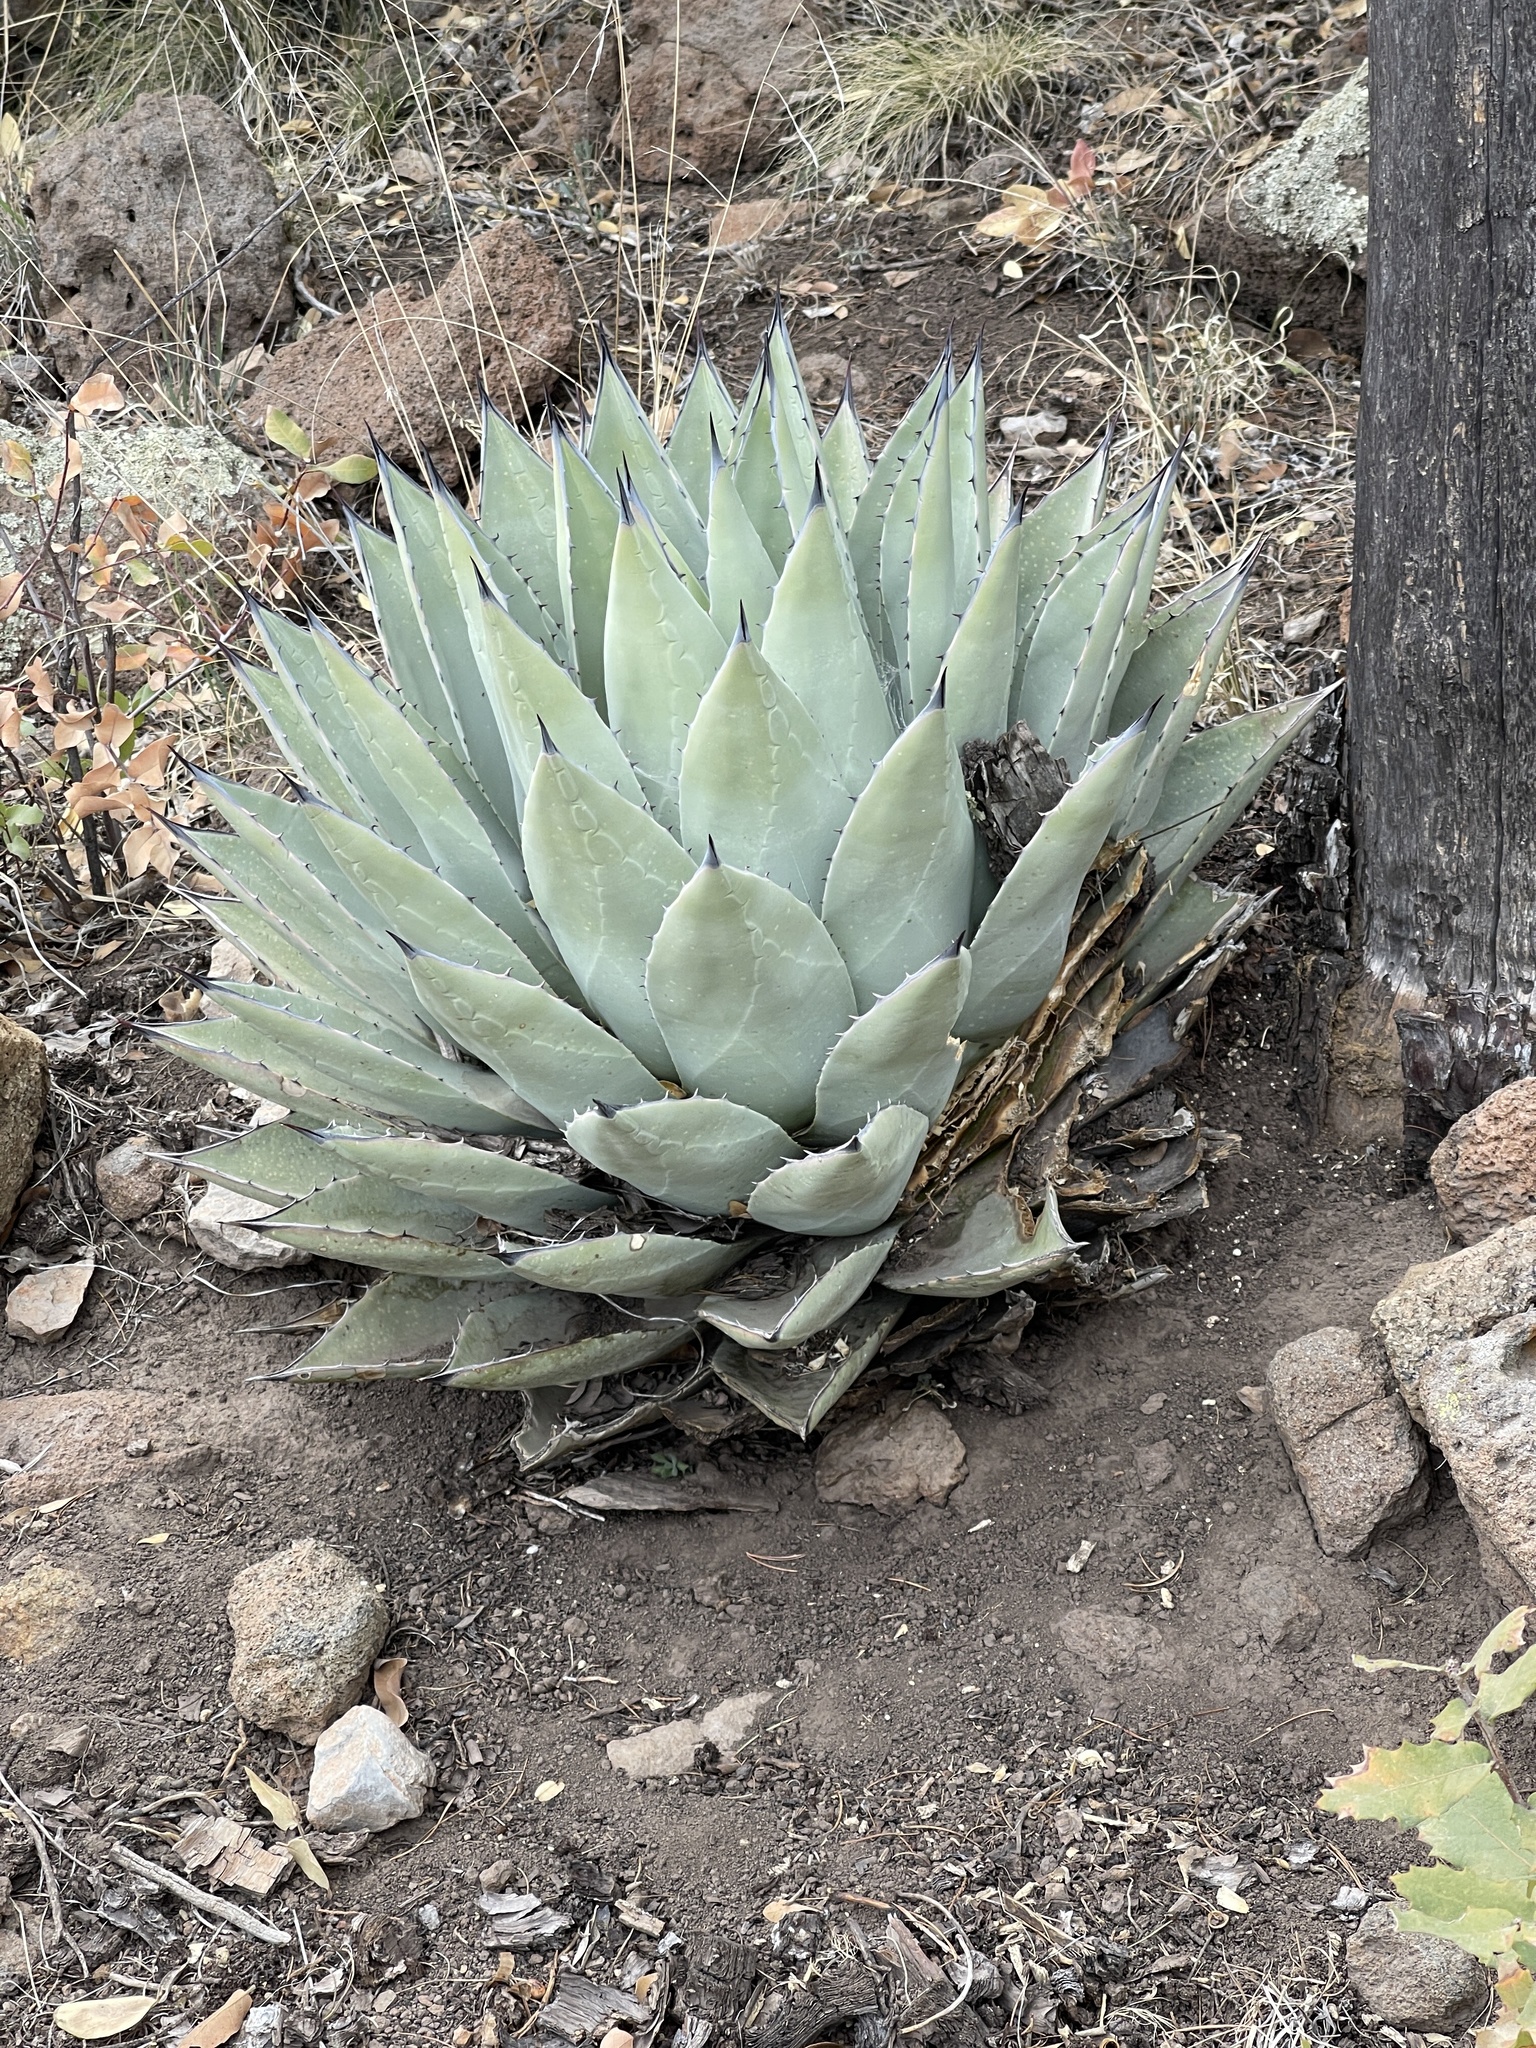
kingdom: Plantae
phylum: Tracheophyta
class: Liliopsida
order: Asparagales
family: Asparagaceae
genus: Agave
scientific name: Agave parryi
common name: Parry's agave
